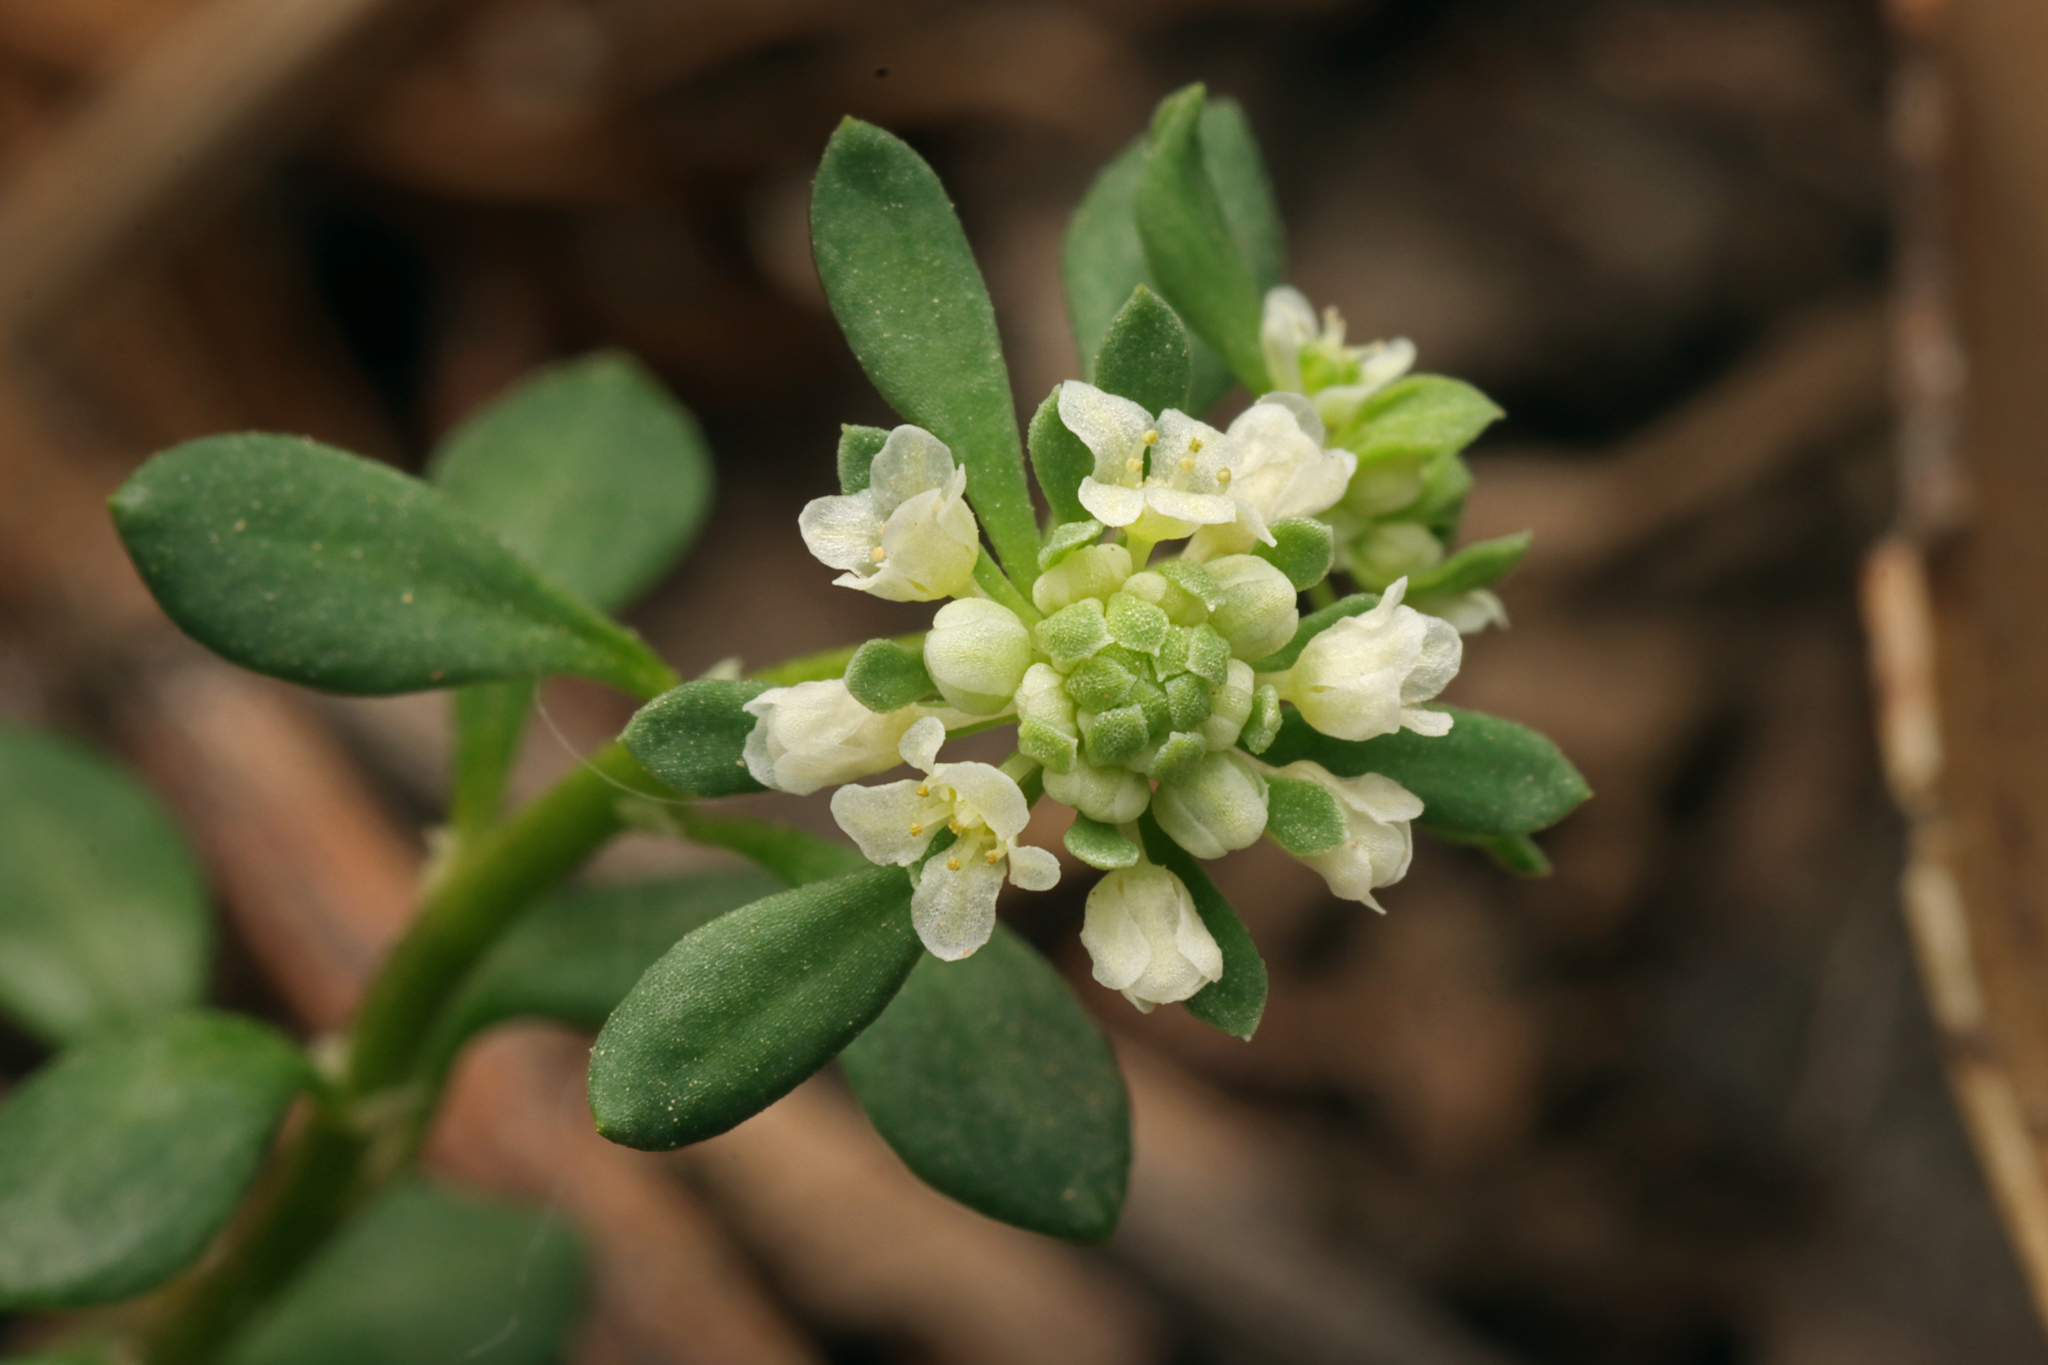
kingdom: Plantae
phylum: Tracheophyta
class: Magnoliopsida
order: Malpighiales
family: Phyllanthaceae
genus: Poranthera
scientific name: Poranthera microphylla
